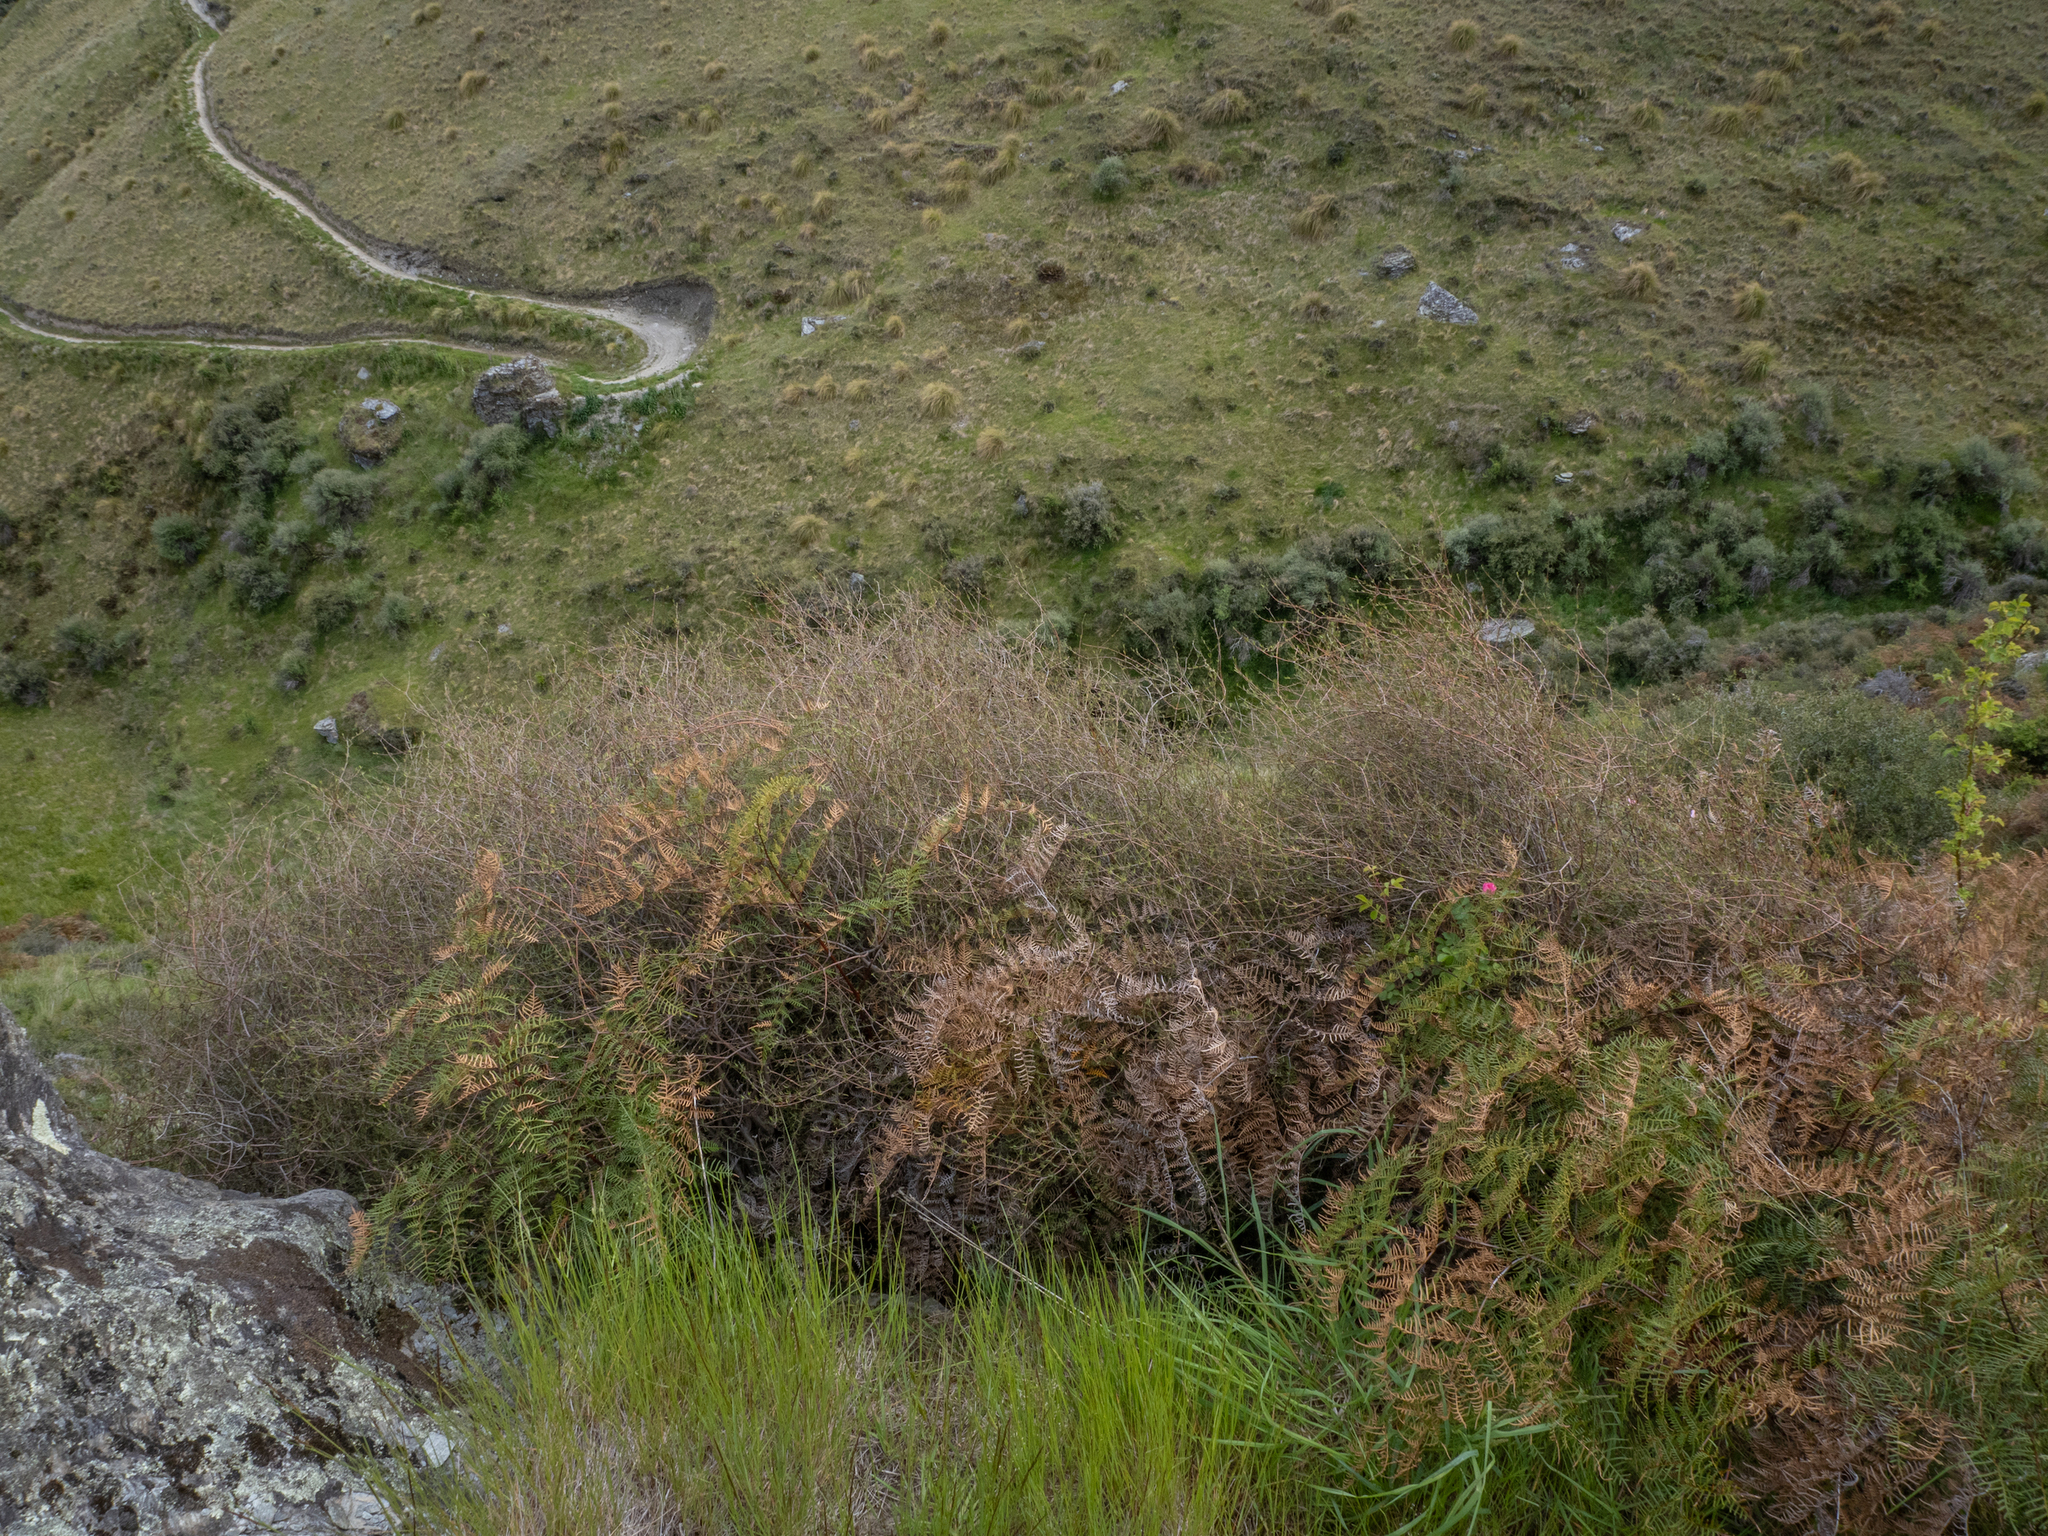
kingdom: Plantae
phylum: Tracheophyta
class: Magnoliopsida
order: Gentianales
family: Rubiaceae
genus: Coprosma
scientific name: Coprosma intertexta
